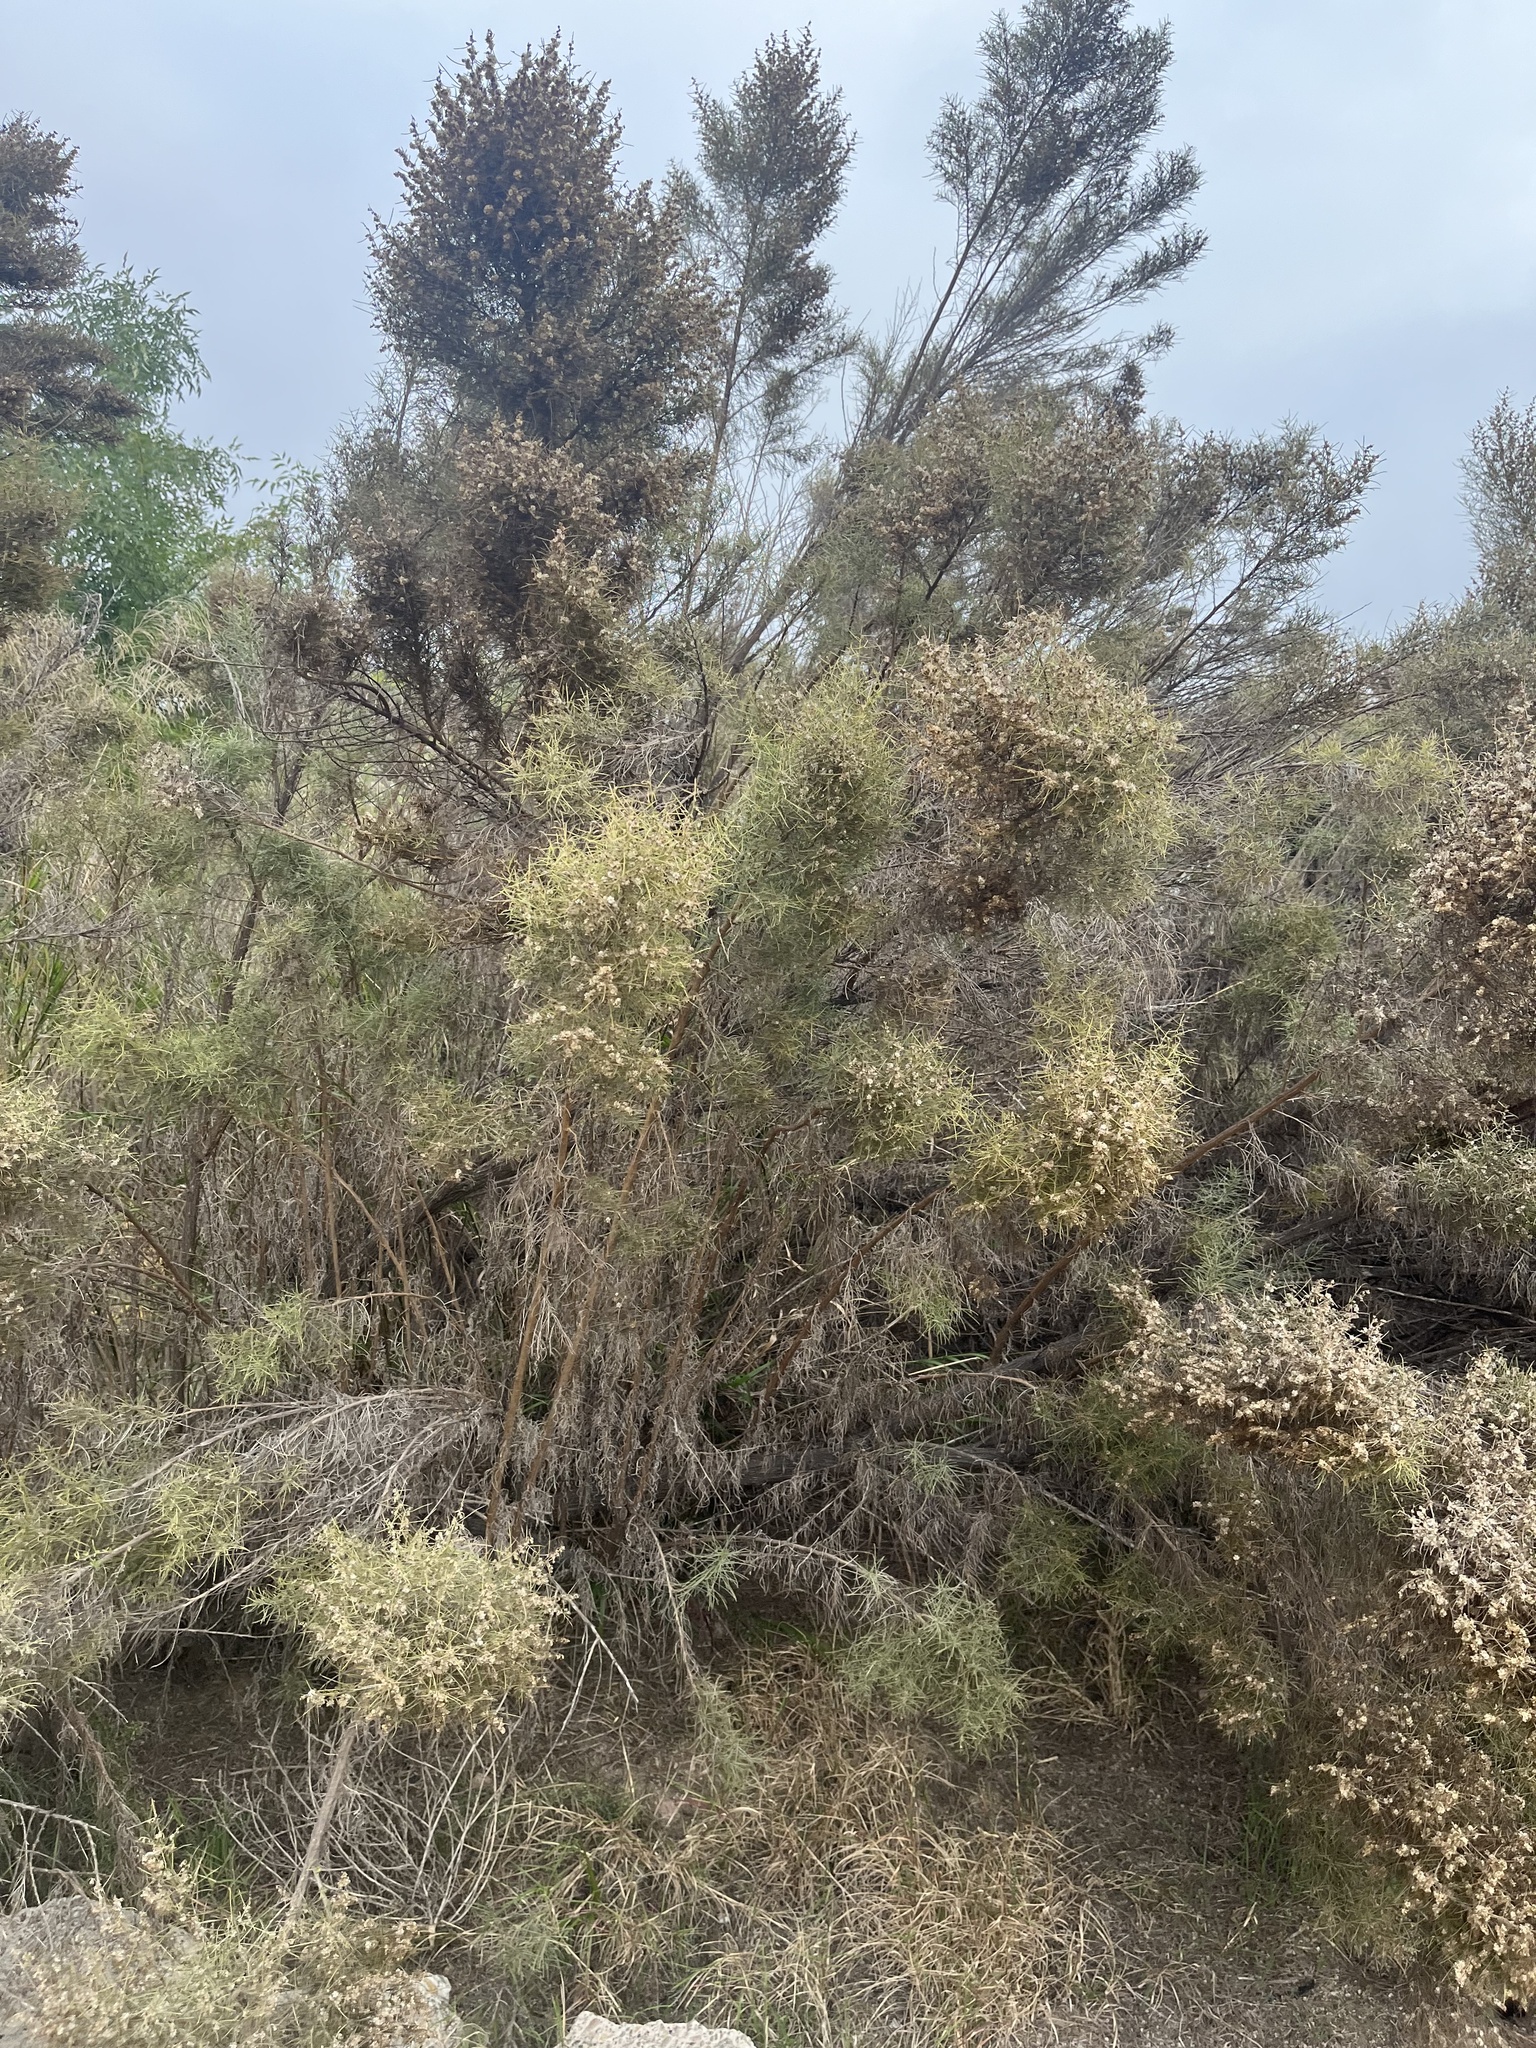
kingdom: Plantae
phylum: Tracheophyta
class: Magnoliopsida
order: Asterales
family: Asteraceae
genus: Ambrosia
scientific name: Ambrosia monogyra
